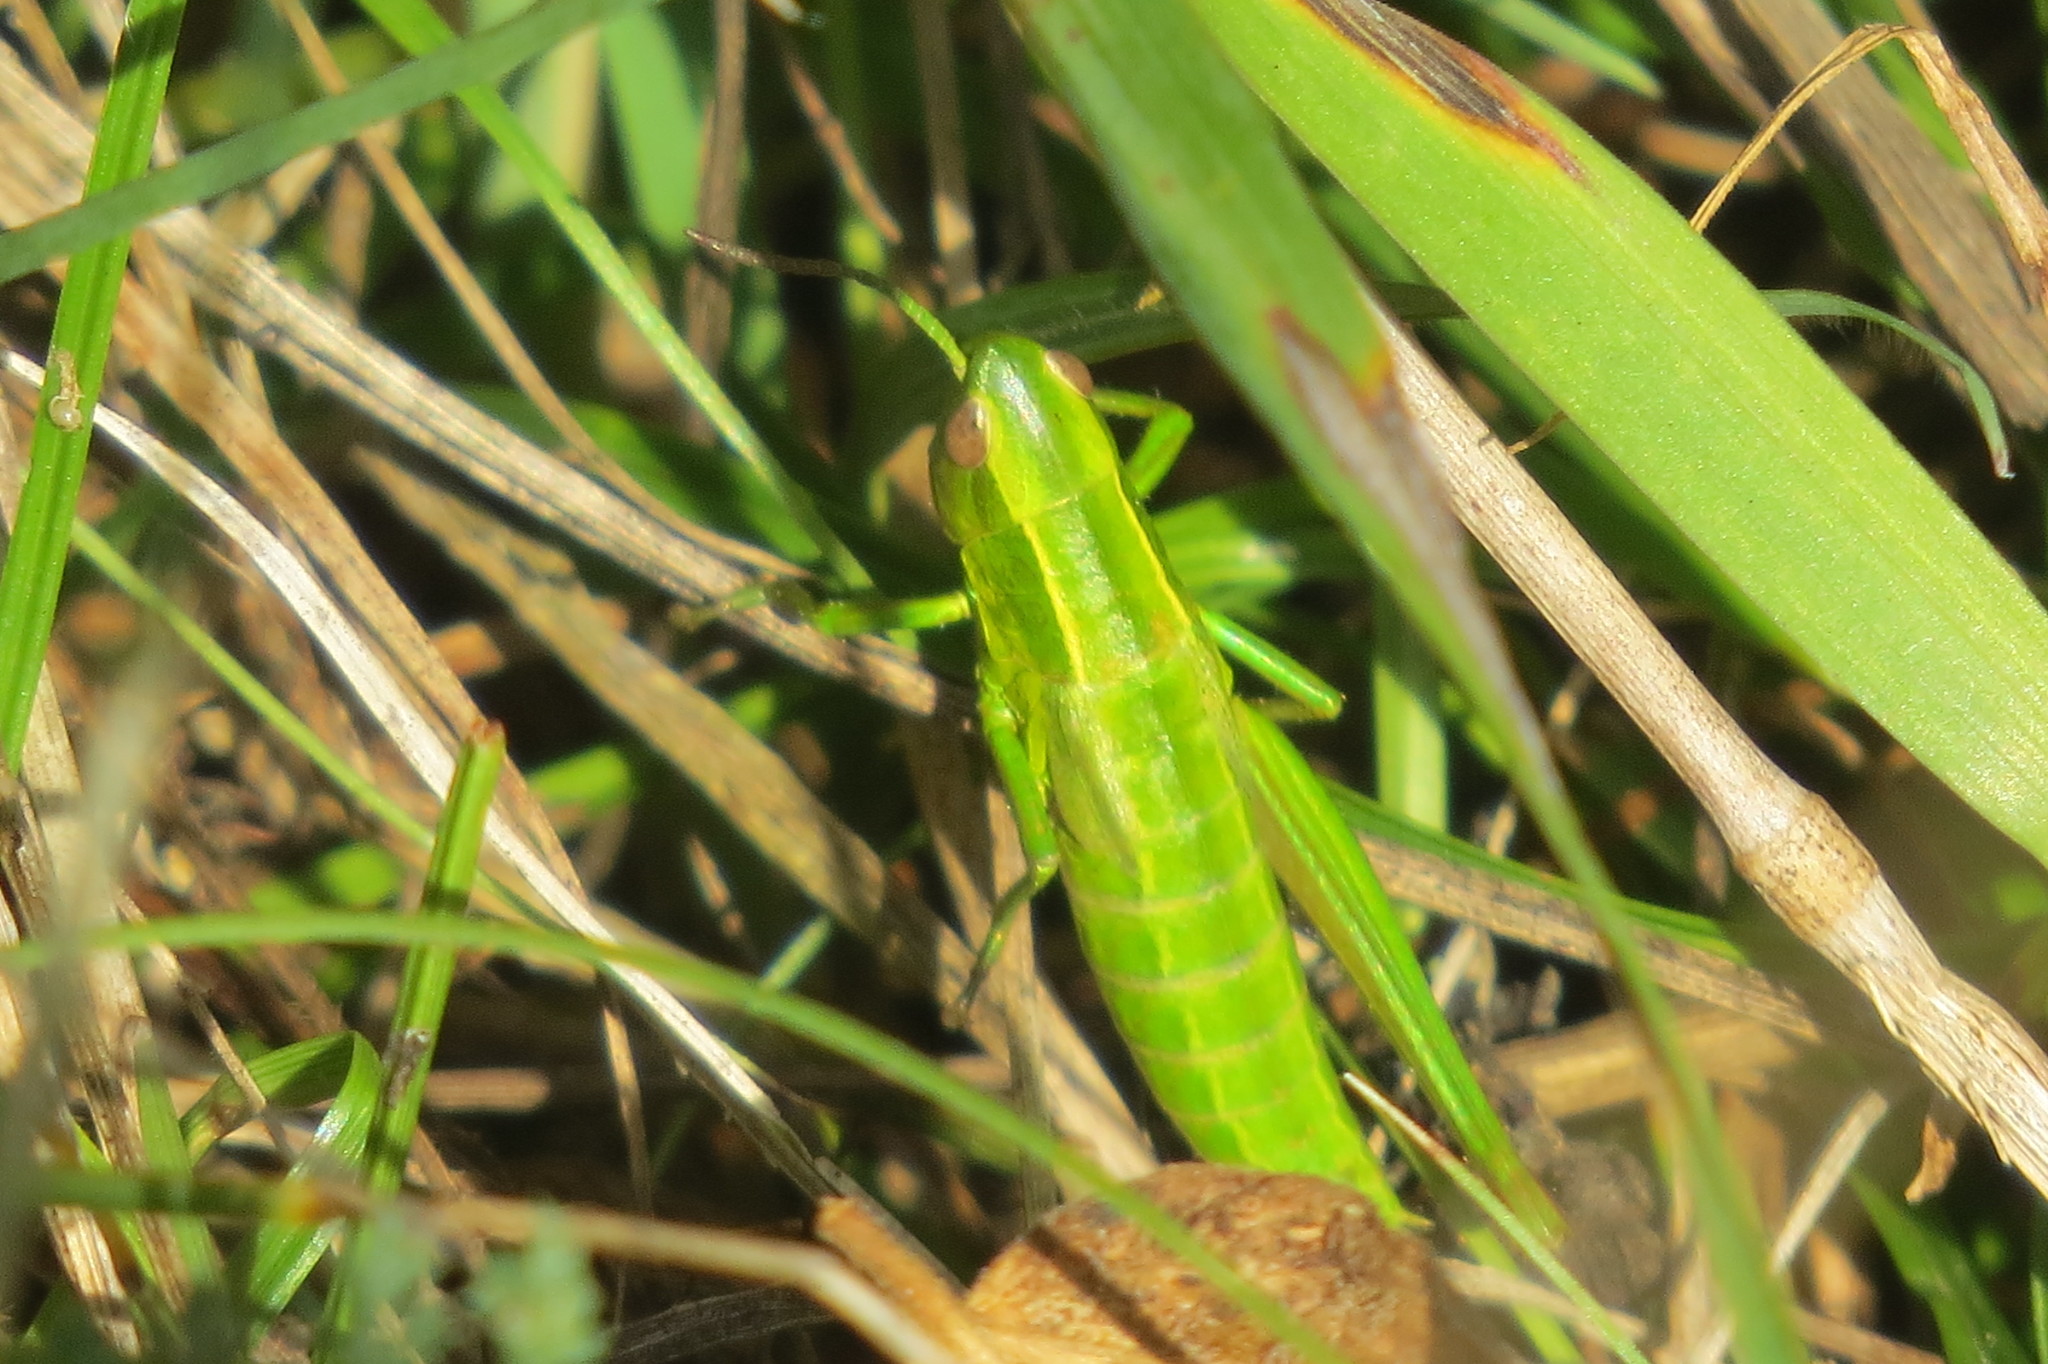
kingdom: Animalia
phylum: Arthropoda
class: Insecta
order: Orthoptera
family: Acrididae
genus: Euthystira
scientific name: Euthystira brachyptera
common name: Small gold grasshopper
